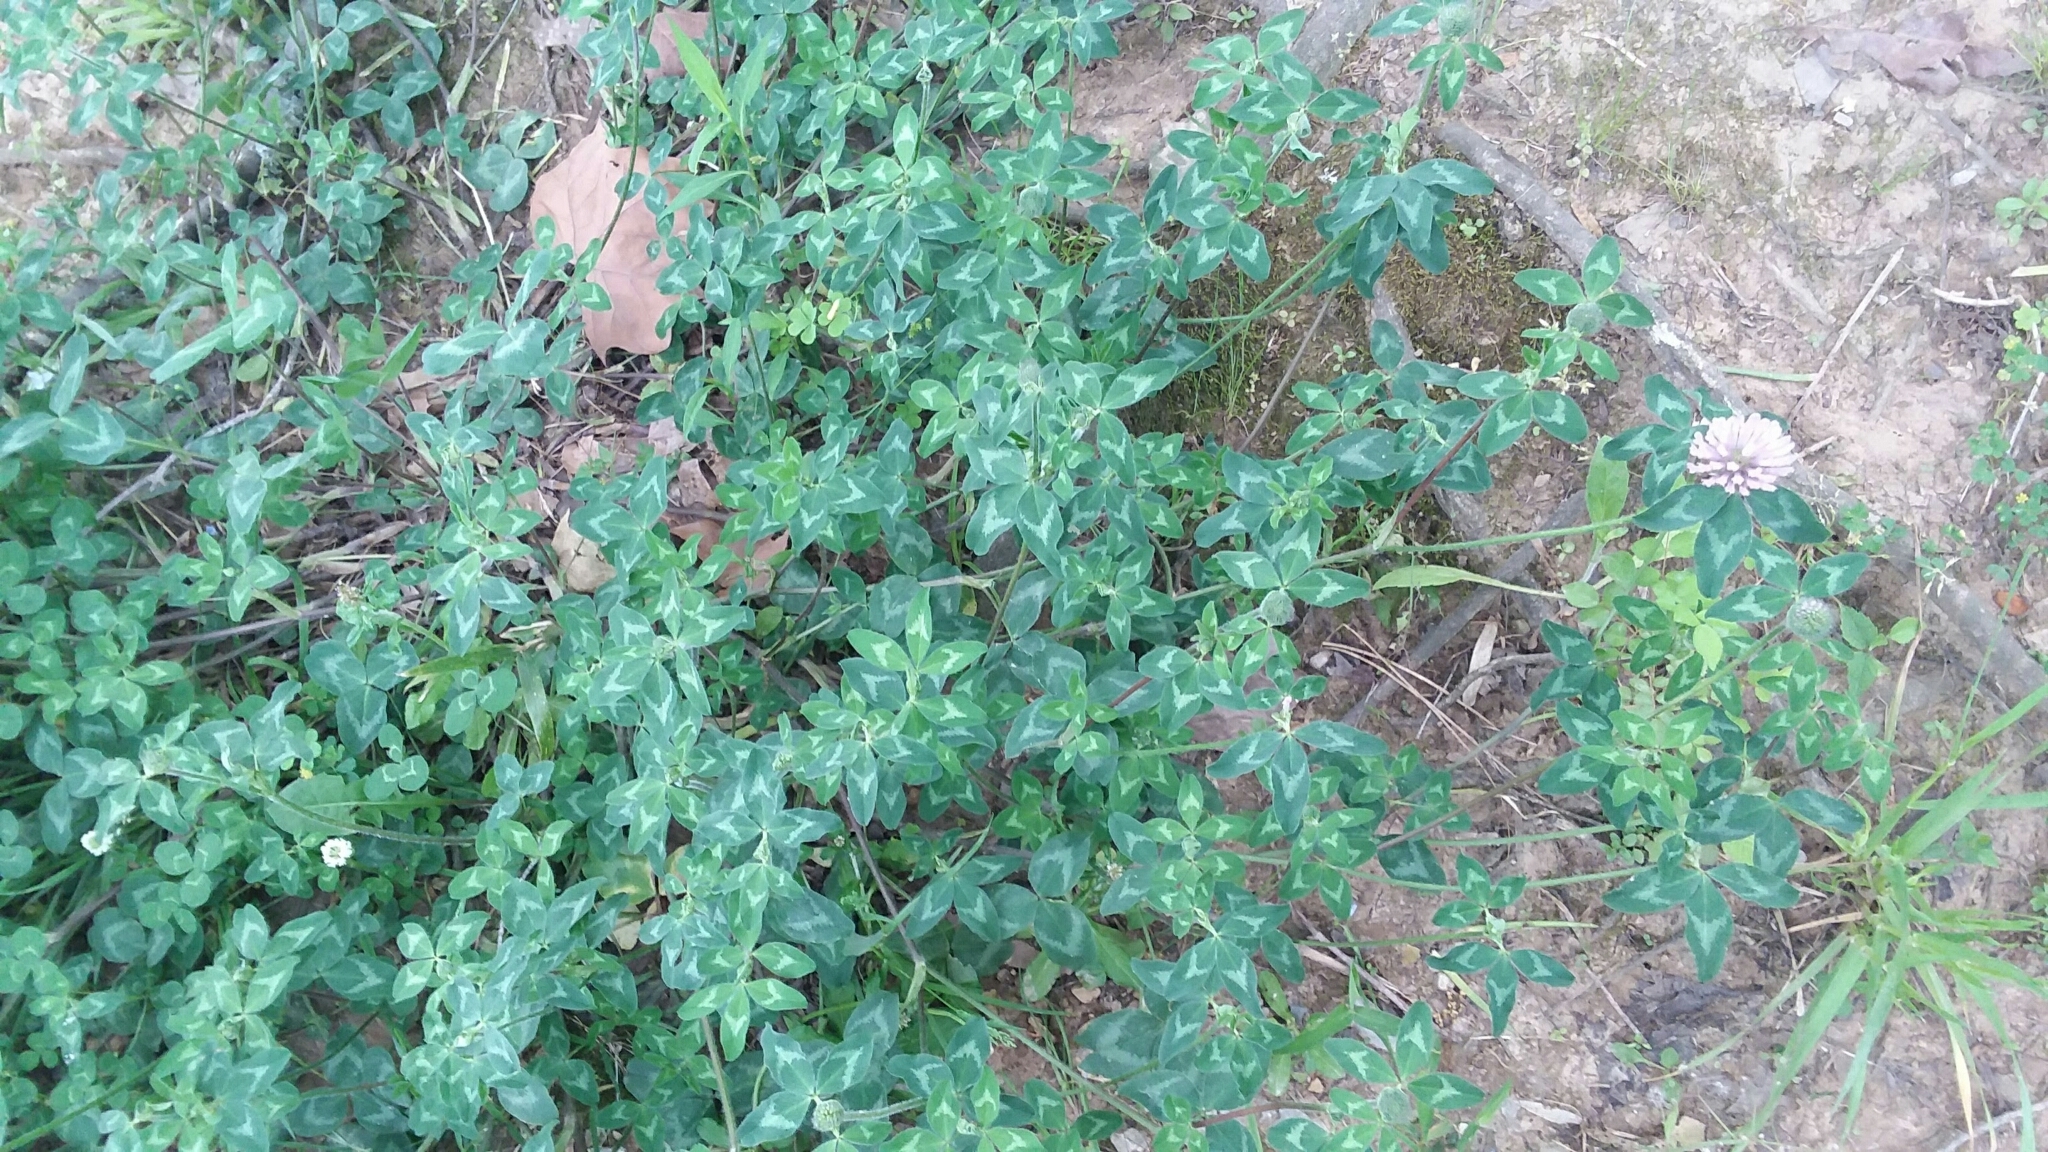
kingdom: Plantae
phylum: Tracheophyta
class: Magnoliopsida
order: Fabales
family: Fabaceae
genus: Trifolium
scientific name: Trifolium pratense
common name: Red clover
